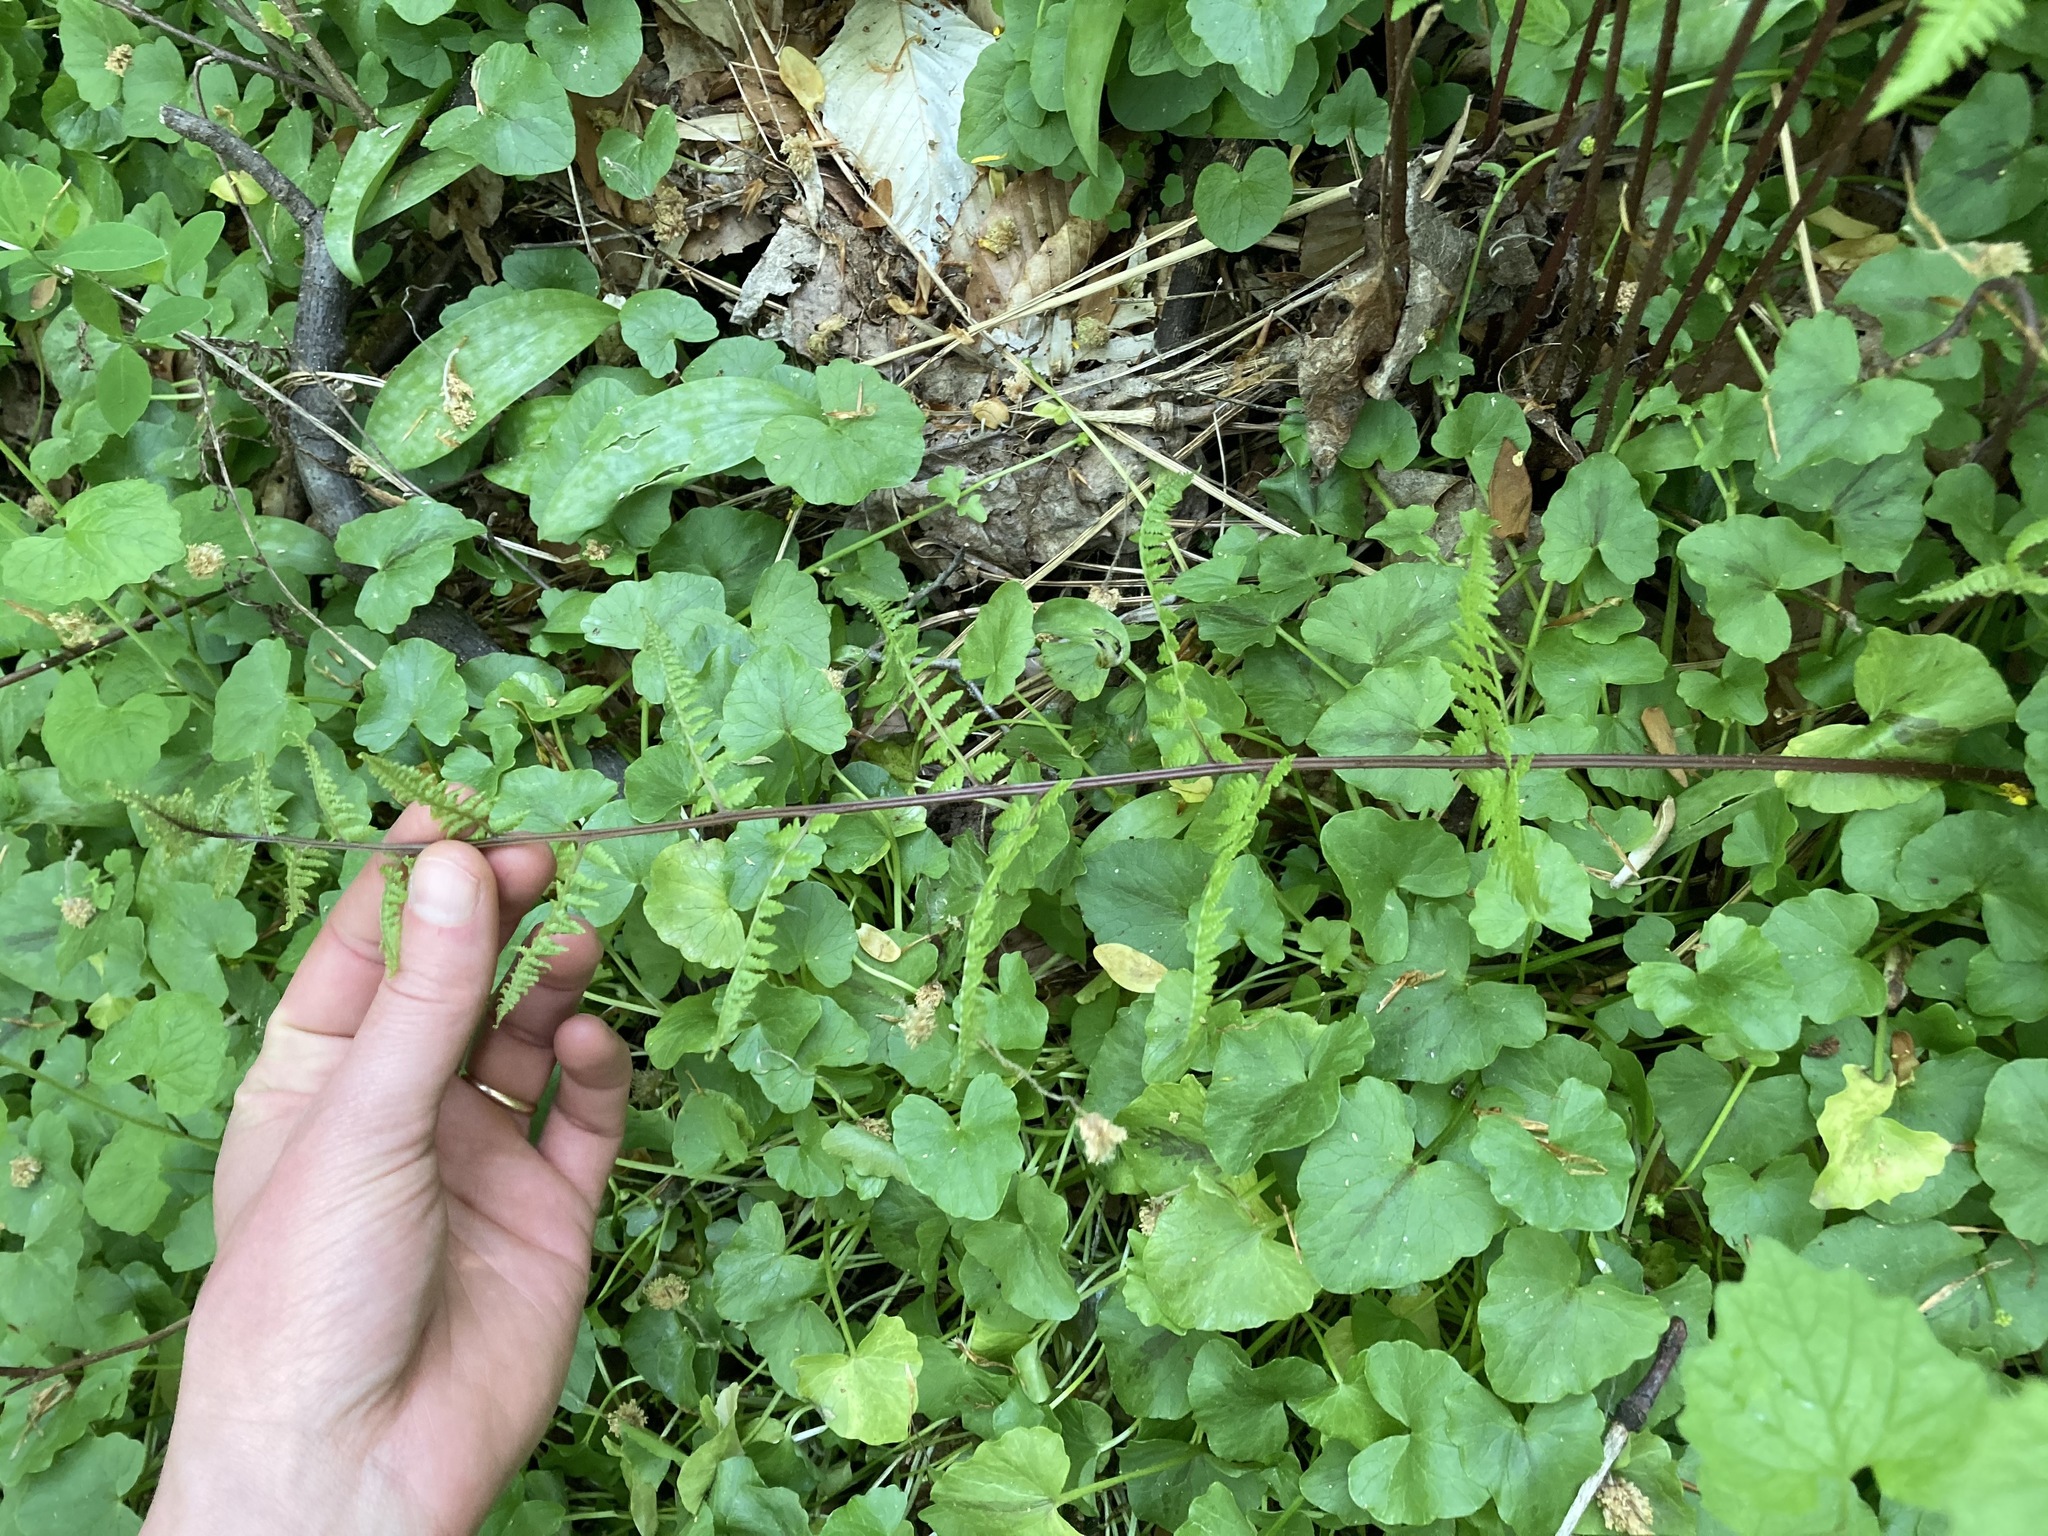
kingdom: Plantae
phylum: Tracheophyta
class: Polypodiopsida
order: Polypodiales
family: Athyriaceae
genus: Athyrium
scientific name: Athyrium angustum
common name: Northern lady fern
